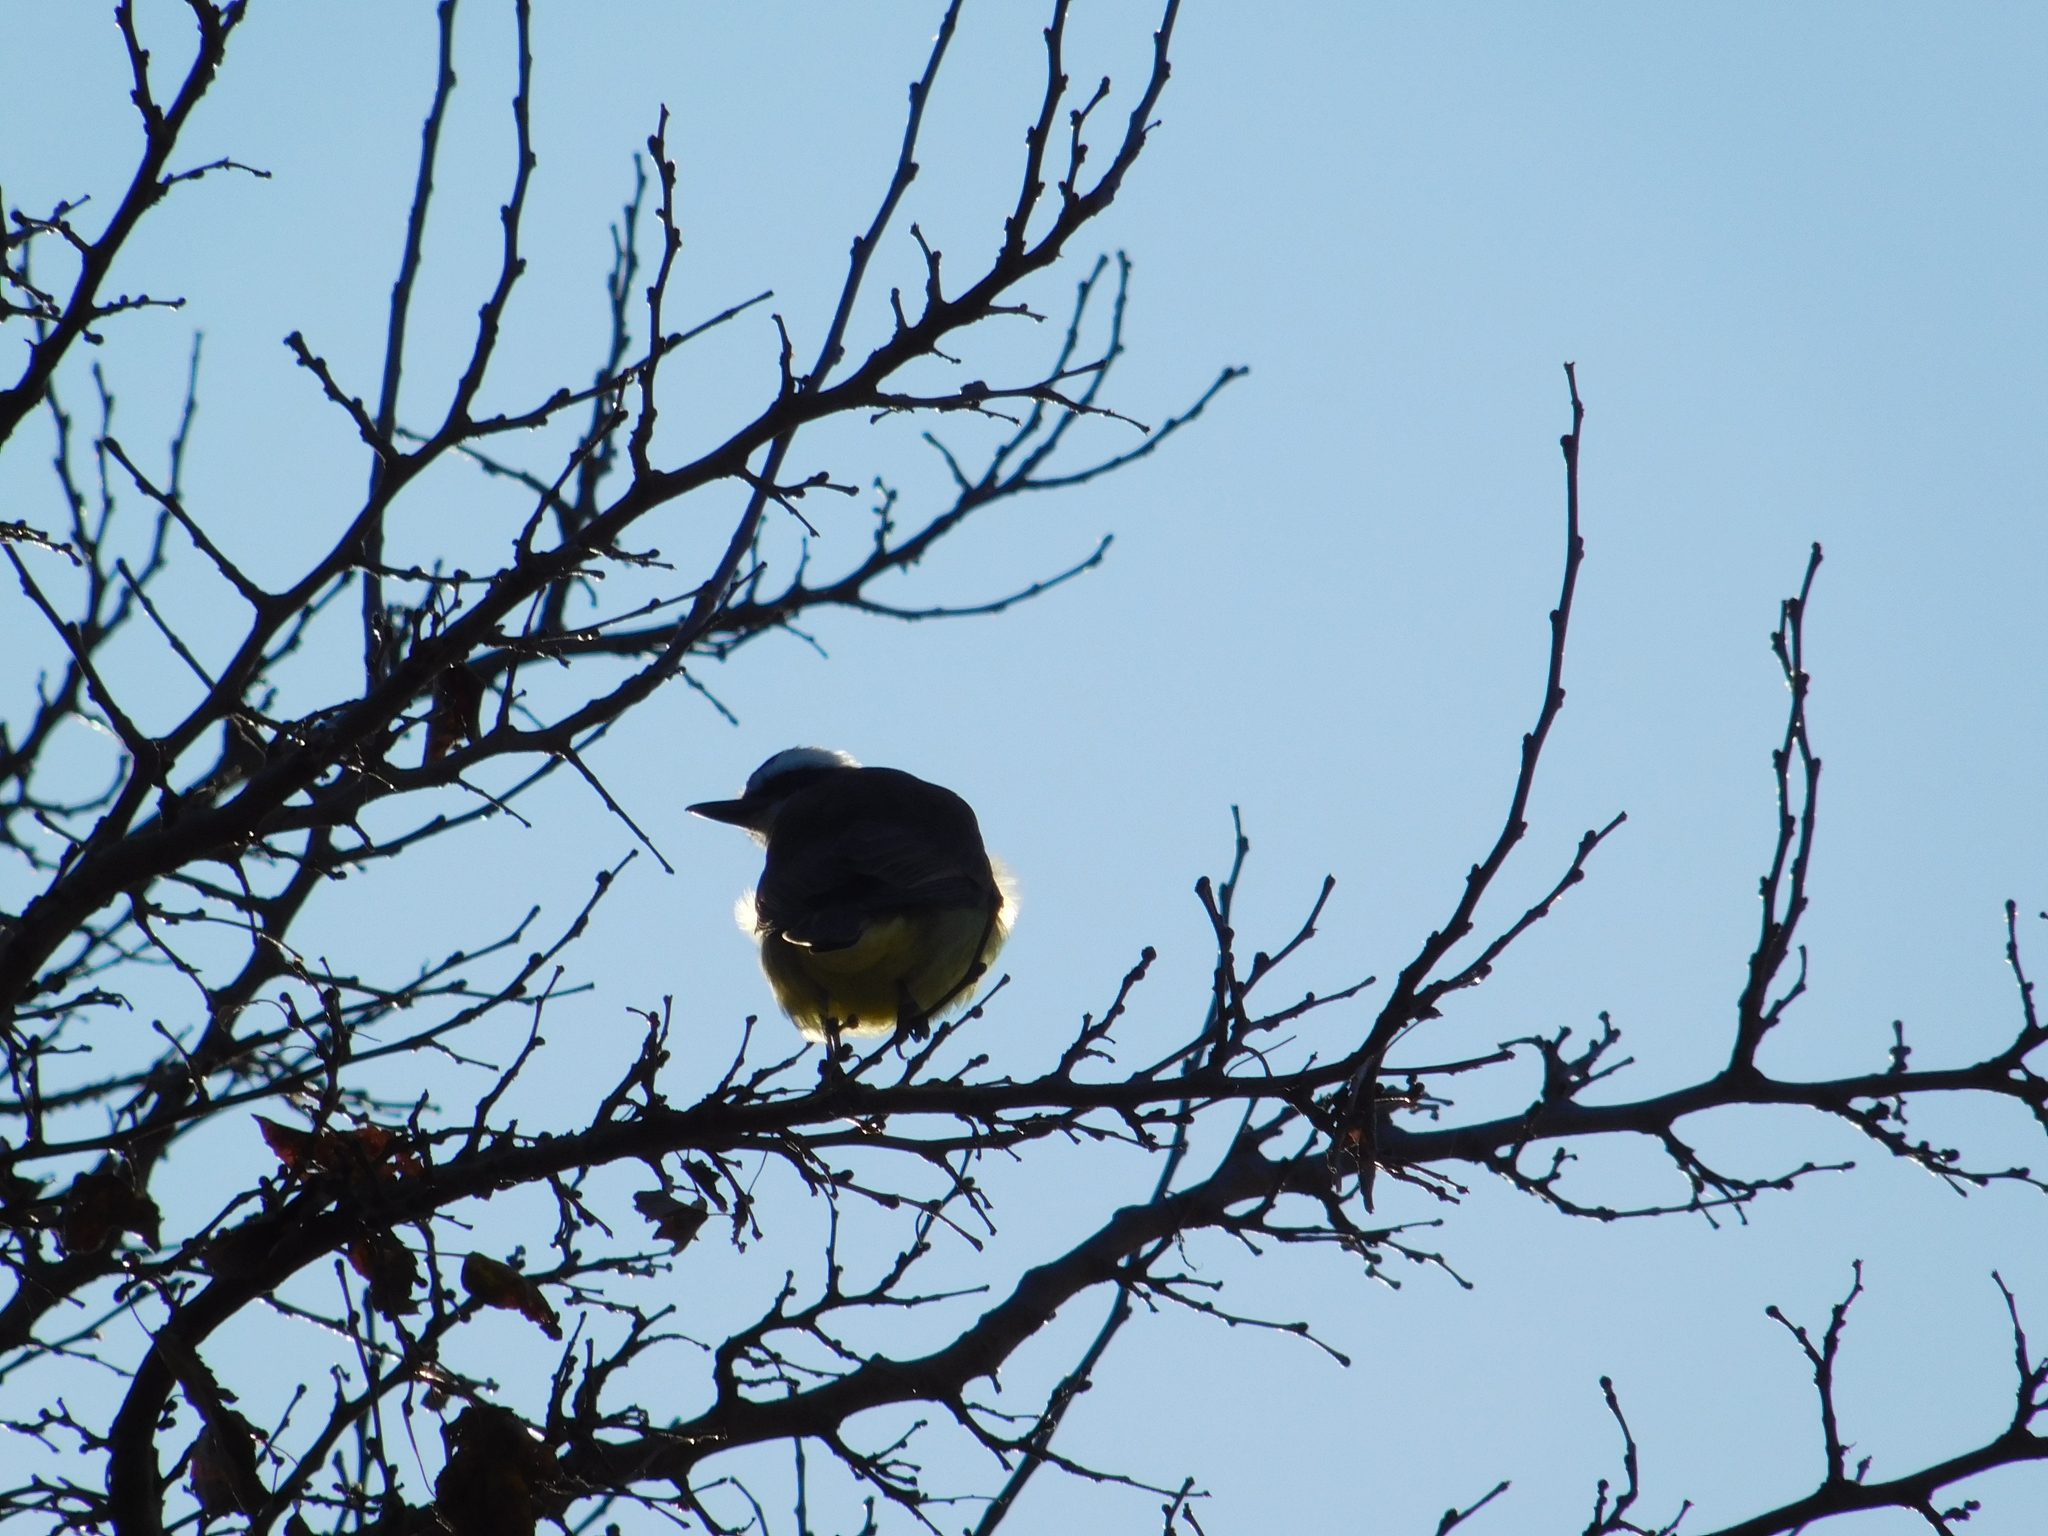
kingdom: Animalia
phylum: Chordata
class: Aves
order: Passeriformes
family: Tyrannidae
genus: Pitangus
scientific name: Pitangus sulphuratus
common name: Great kiskadee
